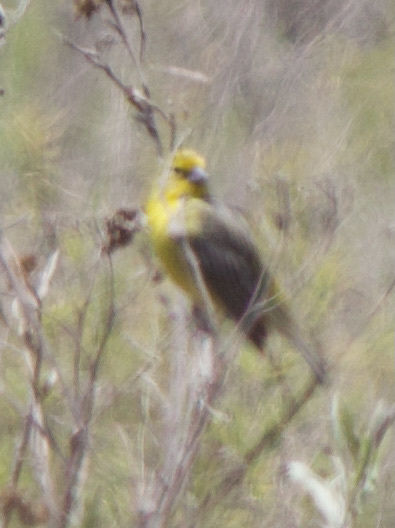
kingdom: Animalia
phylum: Chordata
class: Aves
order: Passeriformes
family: Thraupidae
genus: Sicalis
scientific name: Sicalis luteola
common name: Grassland yellow-finch
